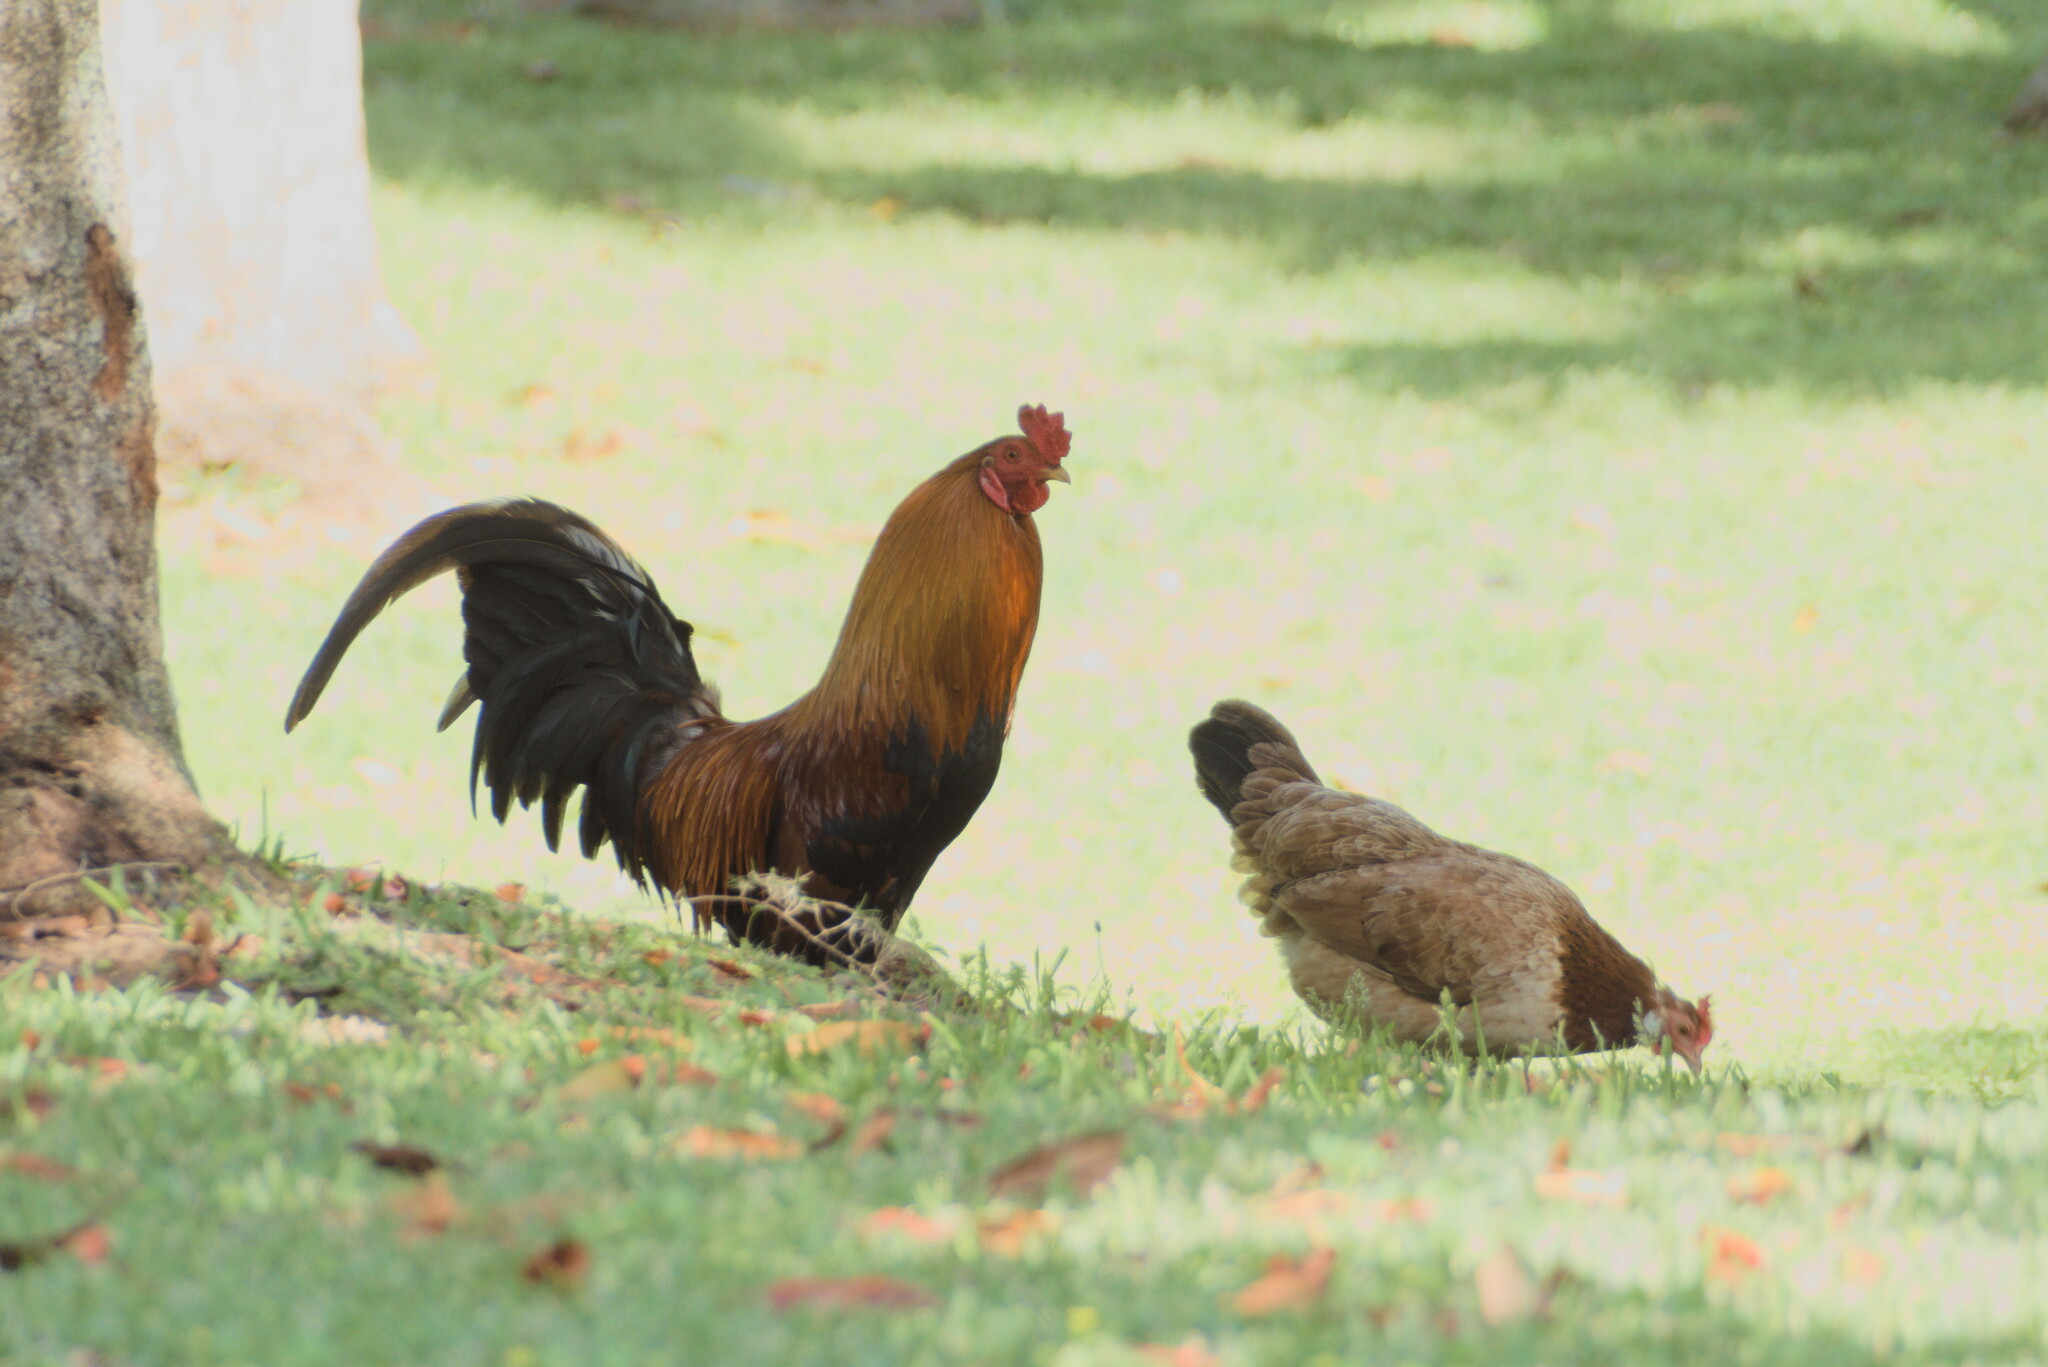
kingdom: Animalia
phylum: Chordata
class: Aves
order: Galliformes
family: Phasianidae
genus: Gallus
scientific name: Gallus gallus
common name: Red junglefowl
